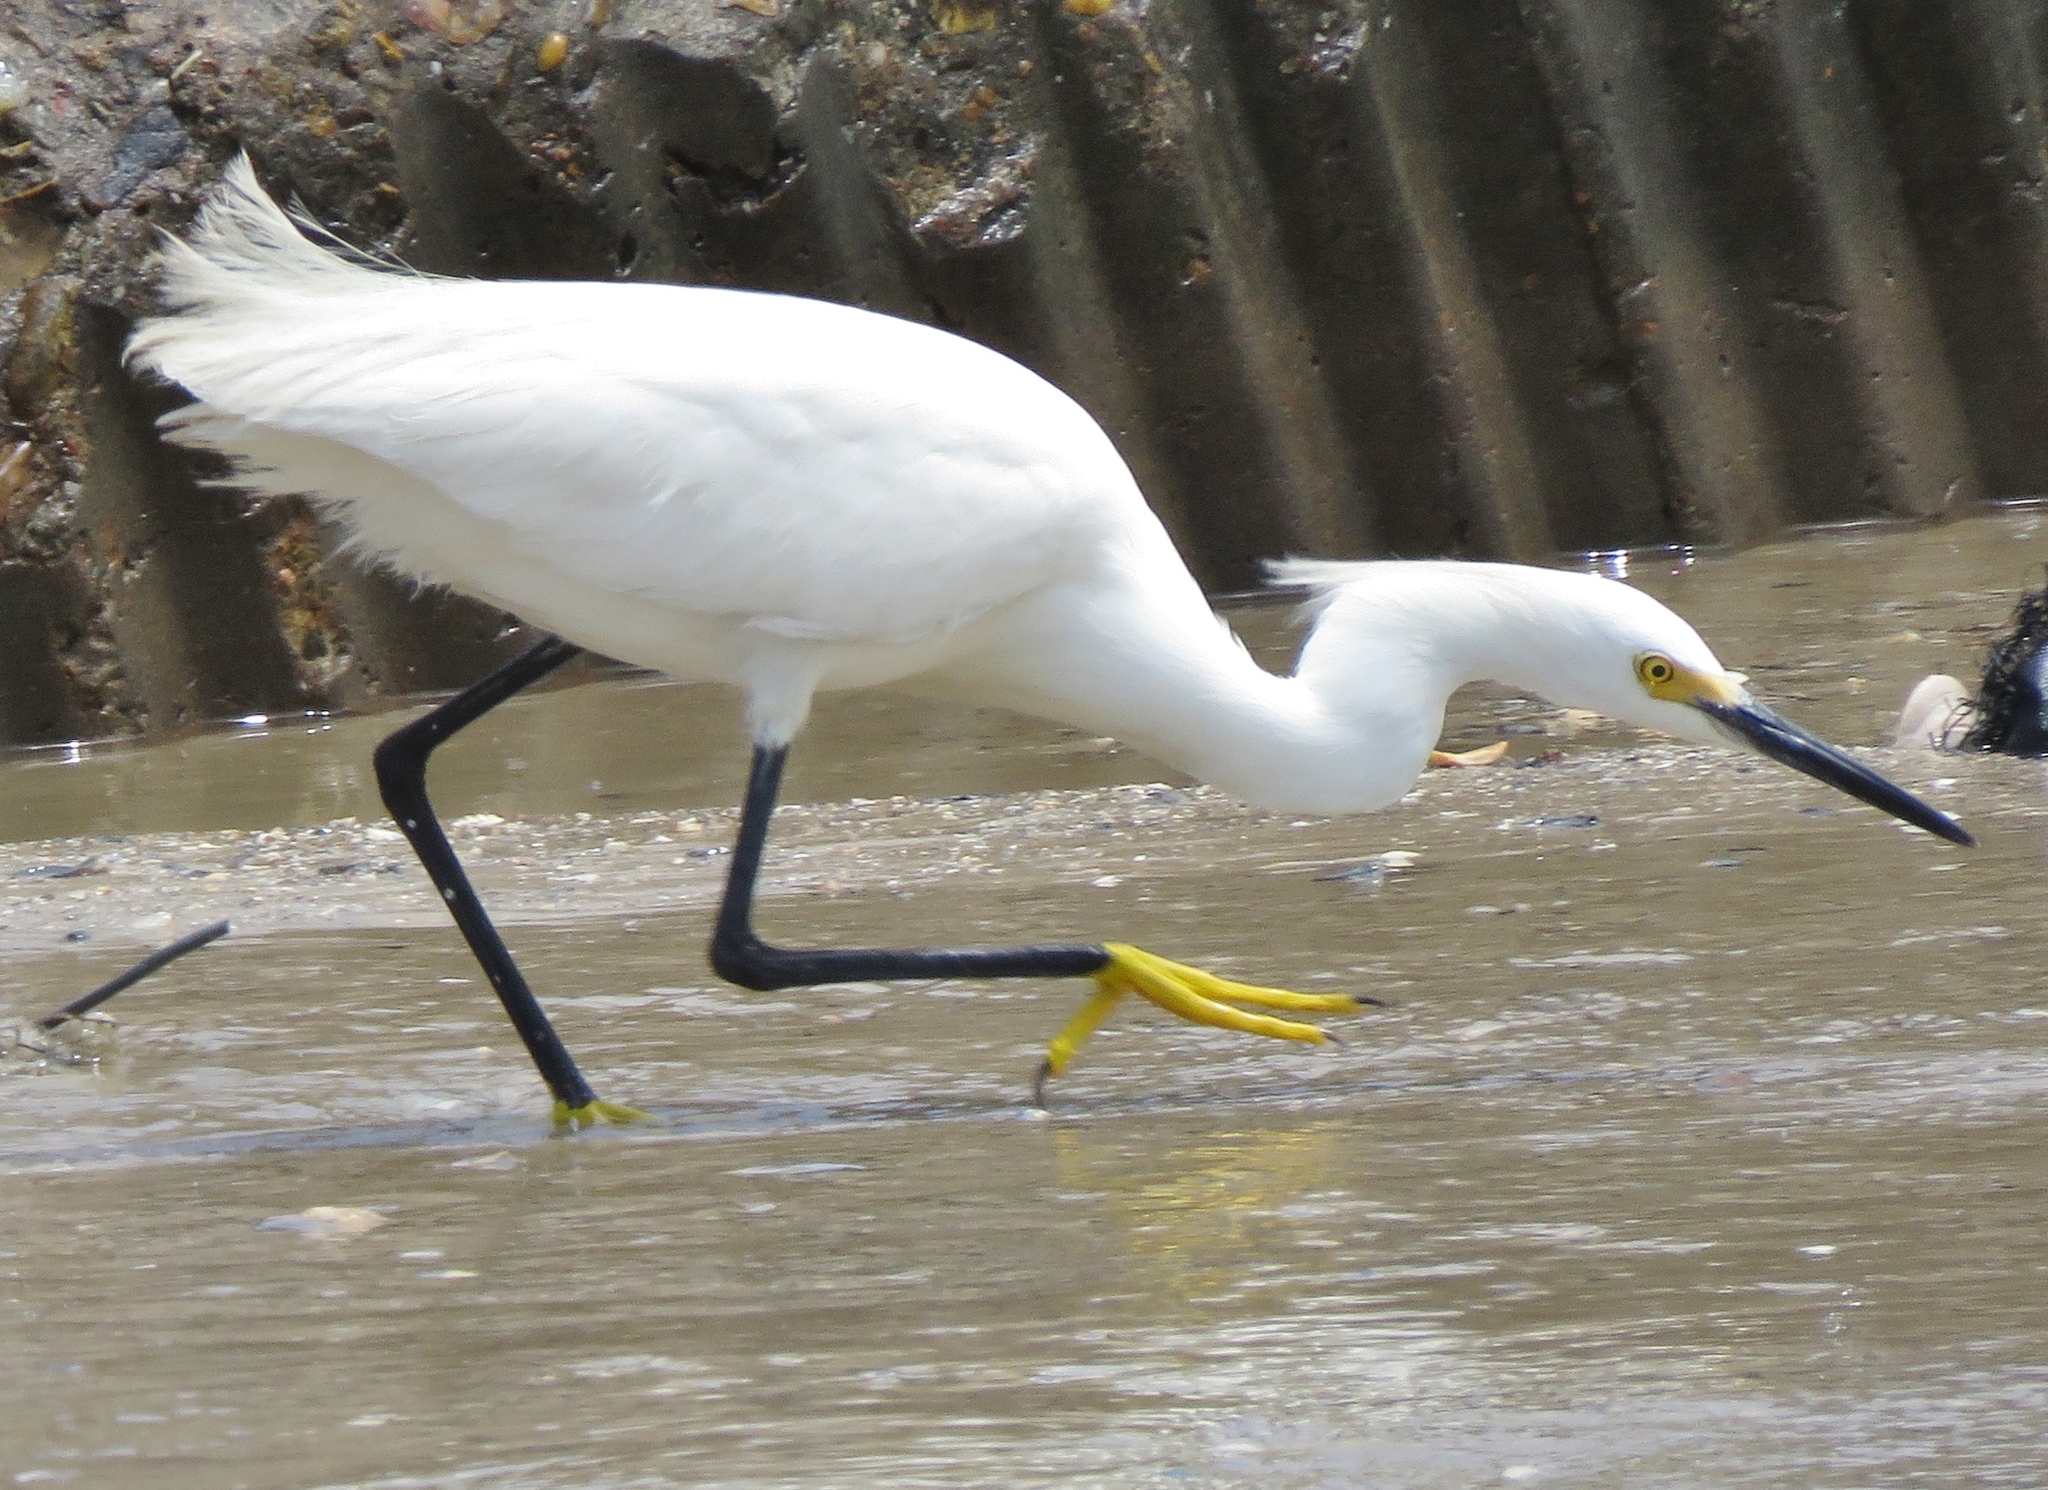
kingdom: Animalia
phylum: Chordata
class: Aves
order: Pelecaniformes
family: Ardeidae
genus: Egretta
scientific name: Egretta thula
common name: Snowy egret
